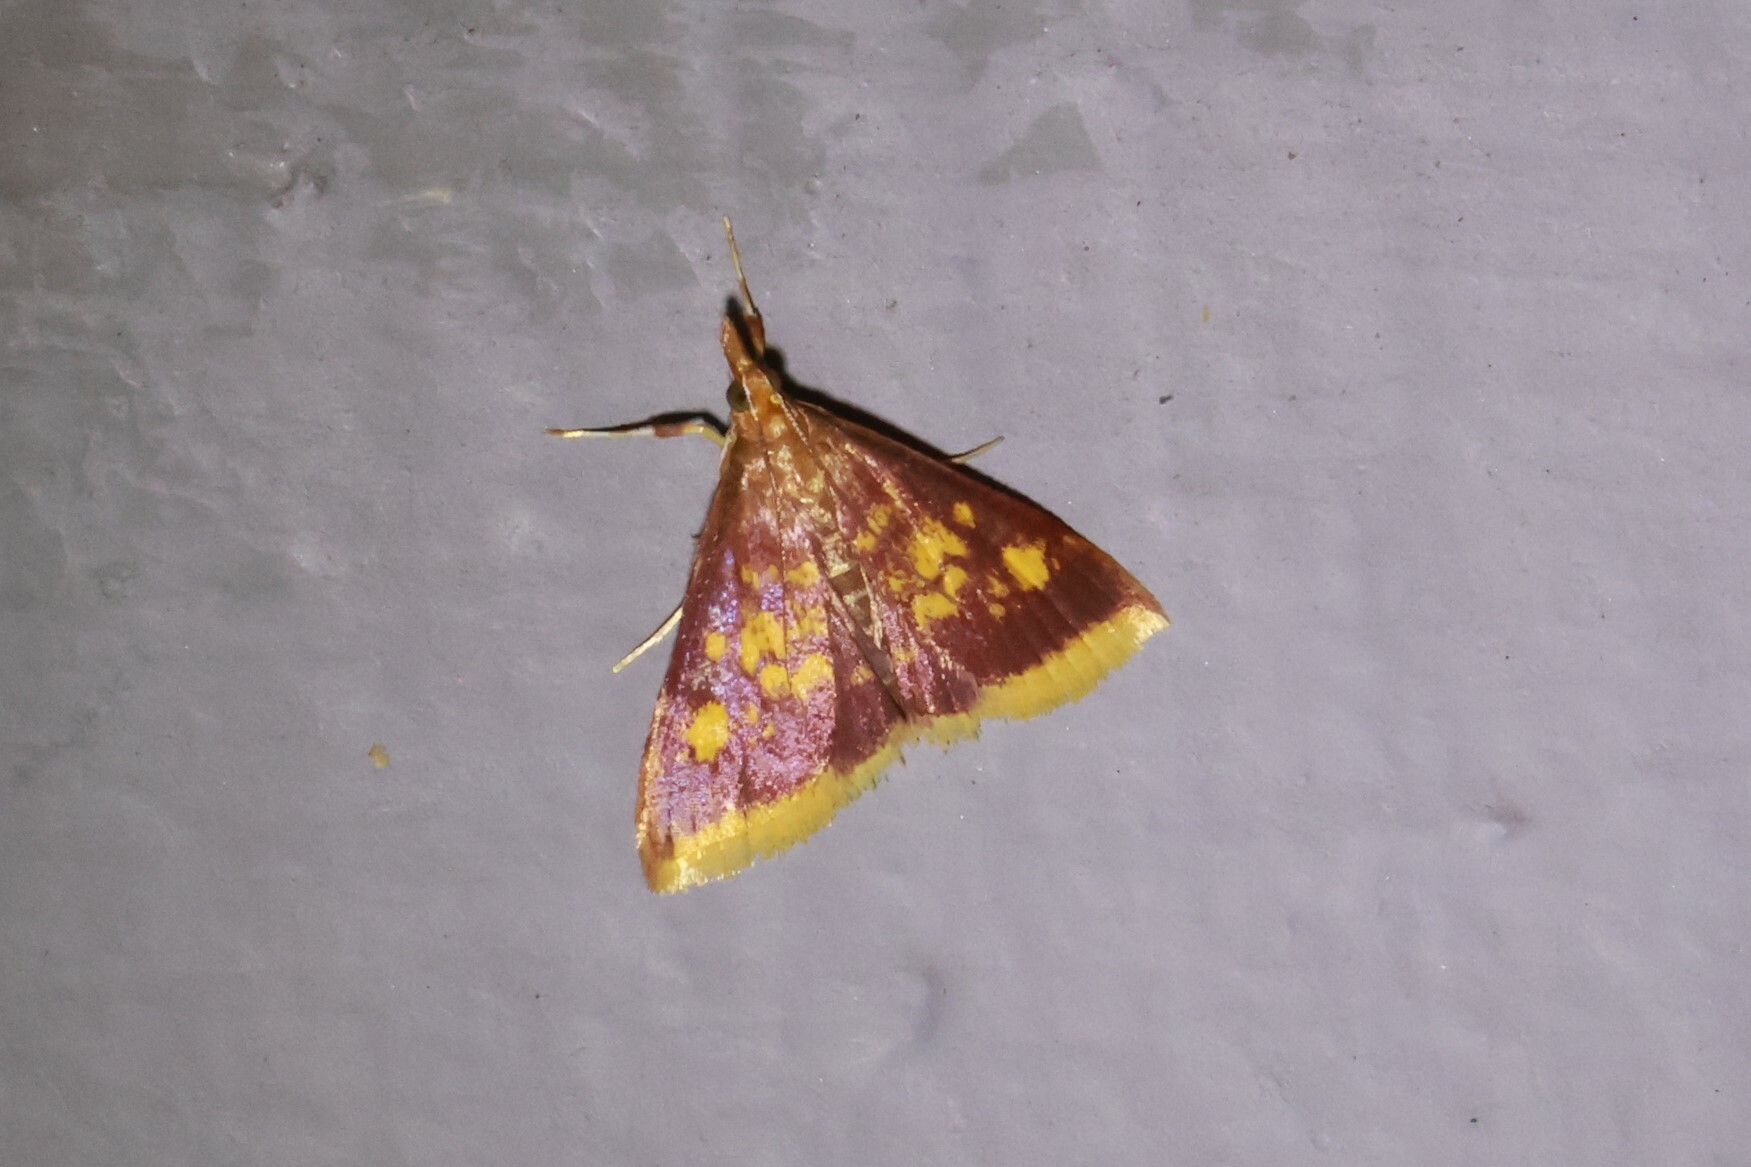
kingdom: Animalia
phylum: Arthropoda
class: Insecta
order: Lepidoptera
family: Crambidae
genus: Pyrausta
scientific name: Pyrausta acrionalis
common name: Mint-loving pyrausta moth
